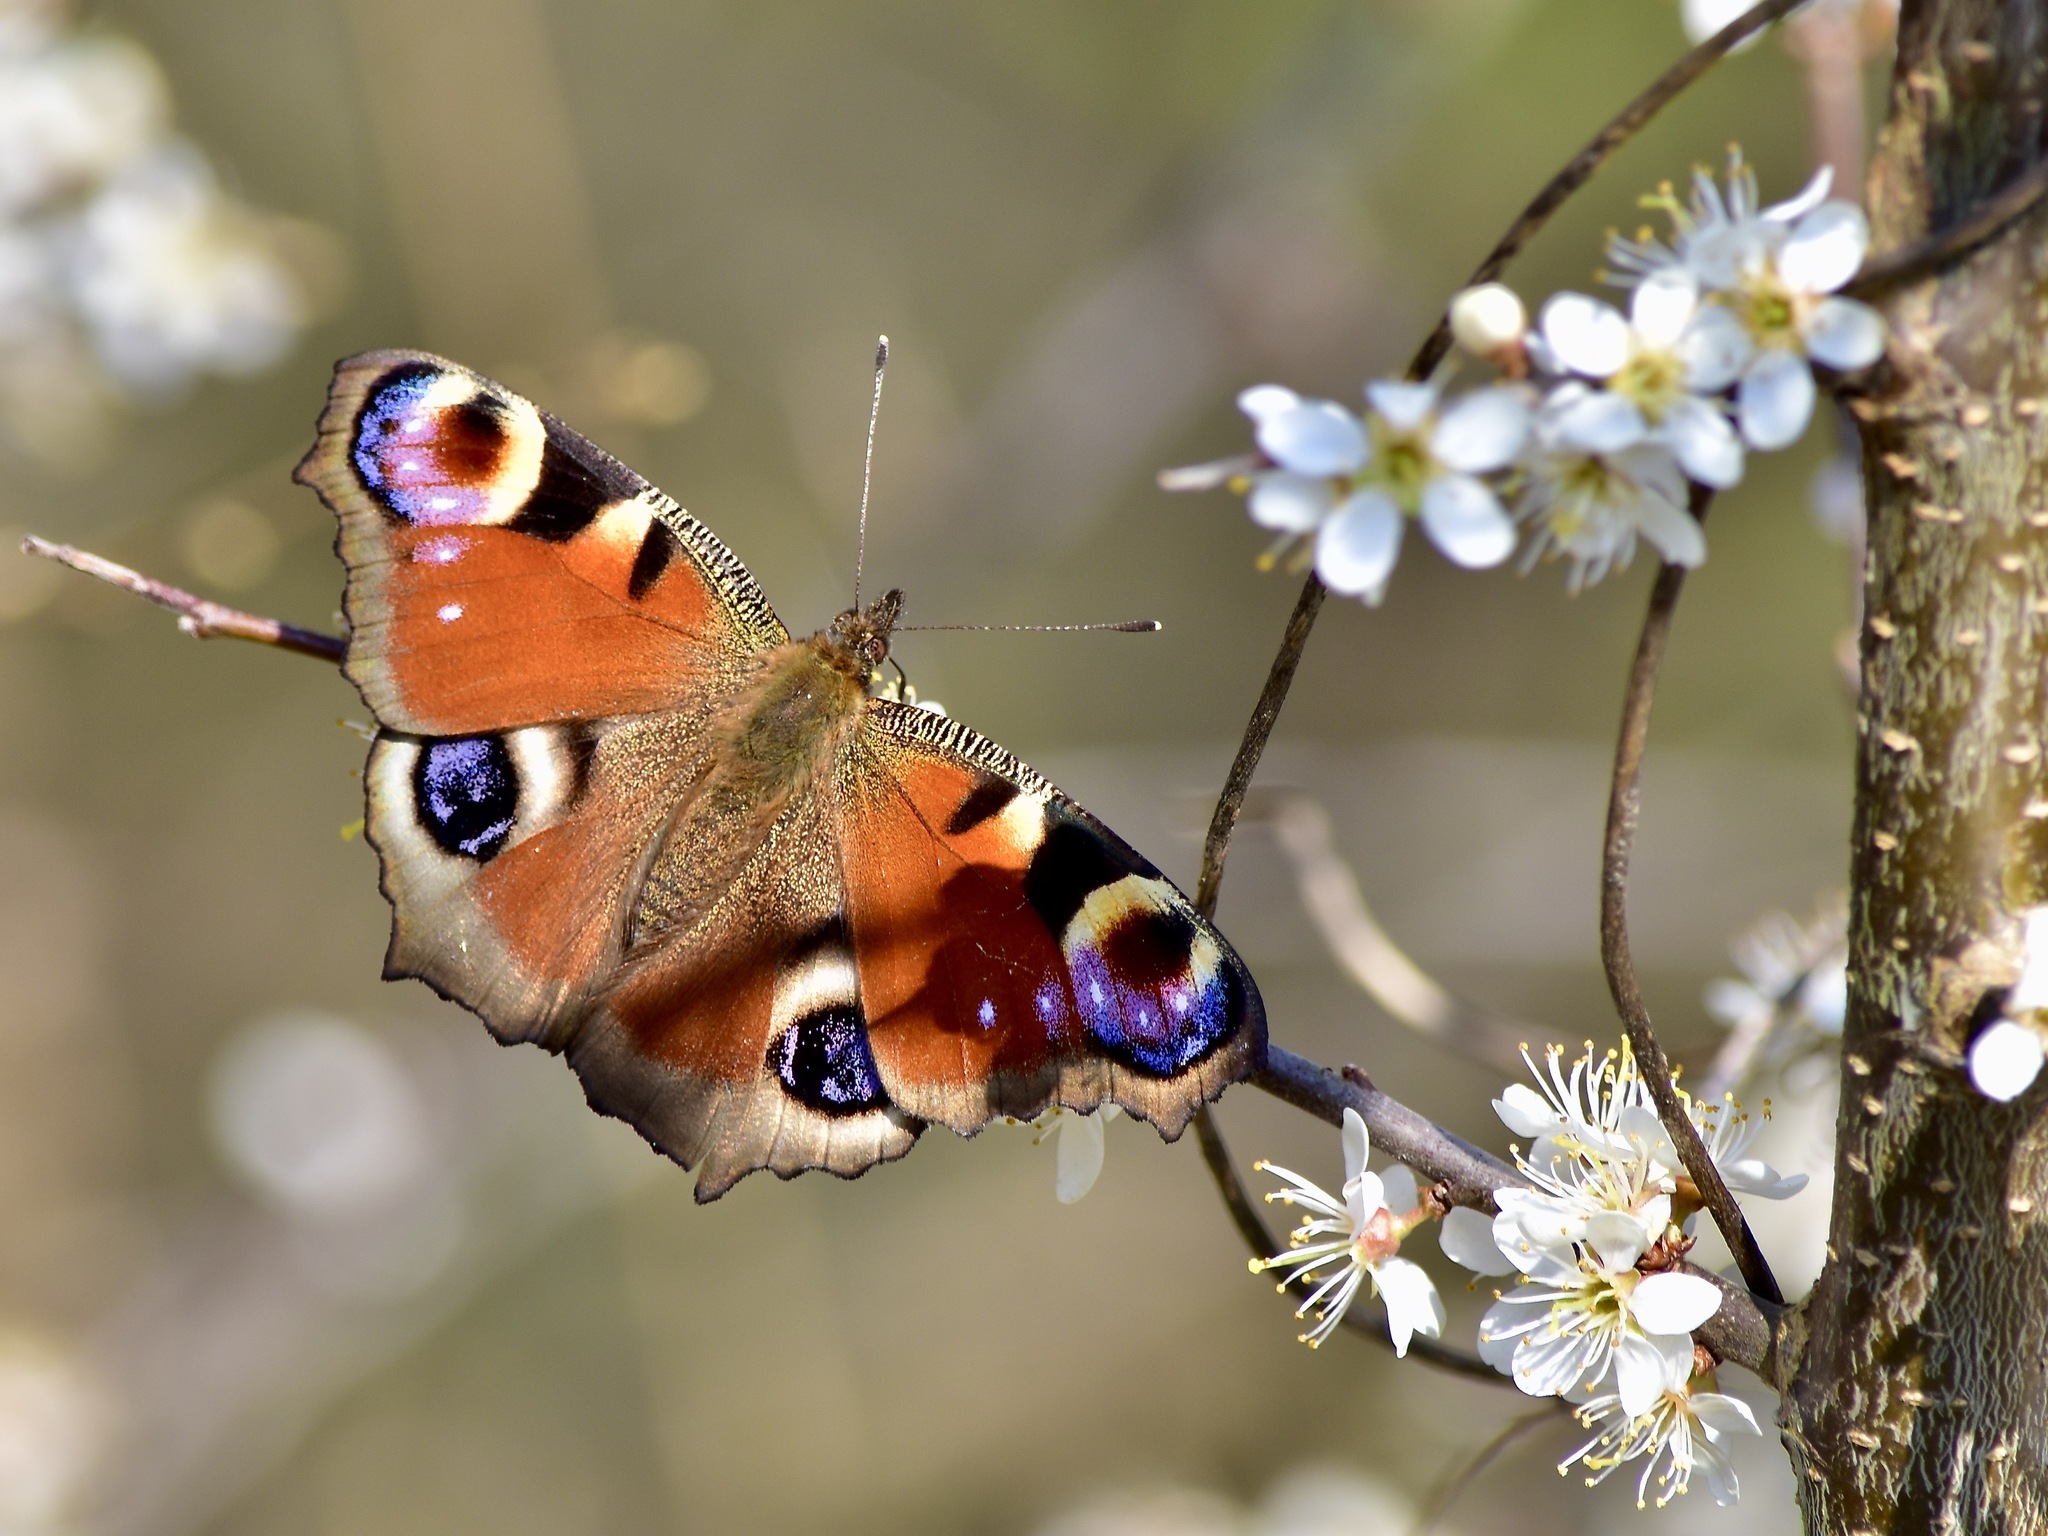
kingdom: Animalia
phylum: Arthropoda
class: Insecta
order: Lepidoptera
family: Nymphalidae
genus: Aglais
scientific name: Aglais io
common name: Peacock
